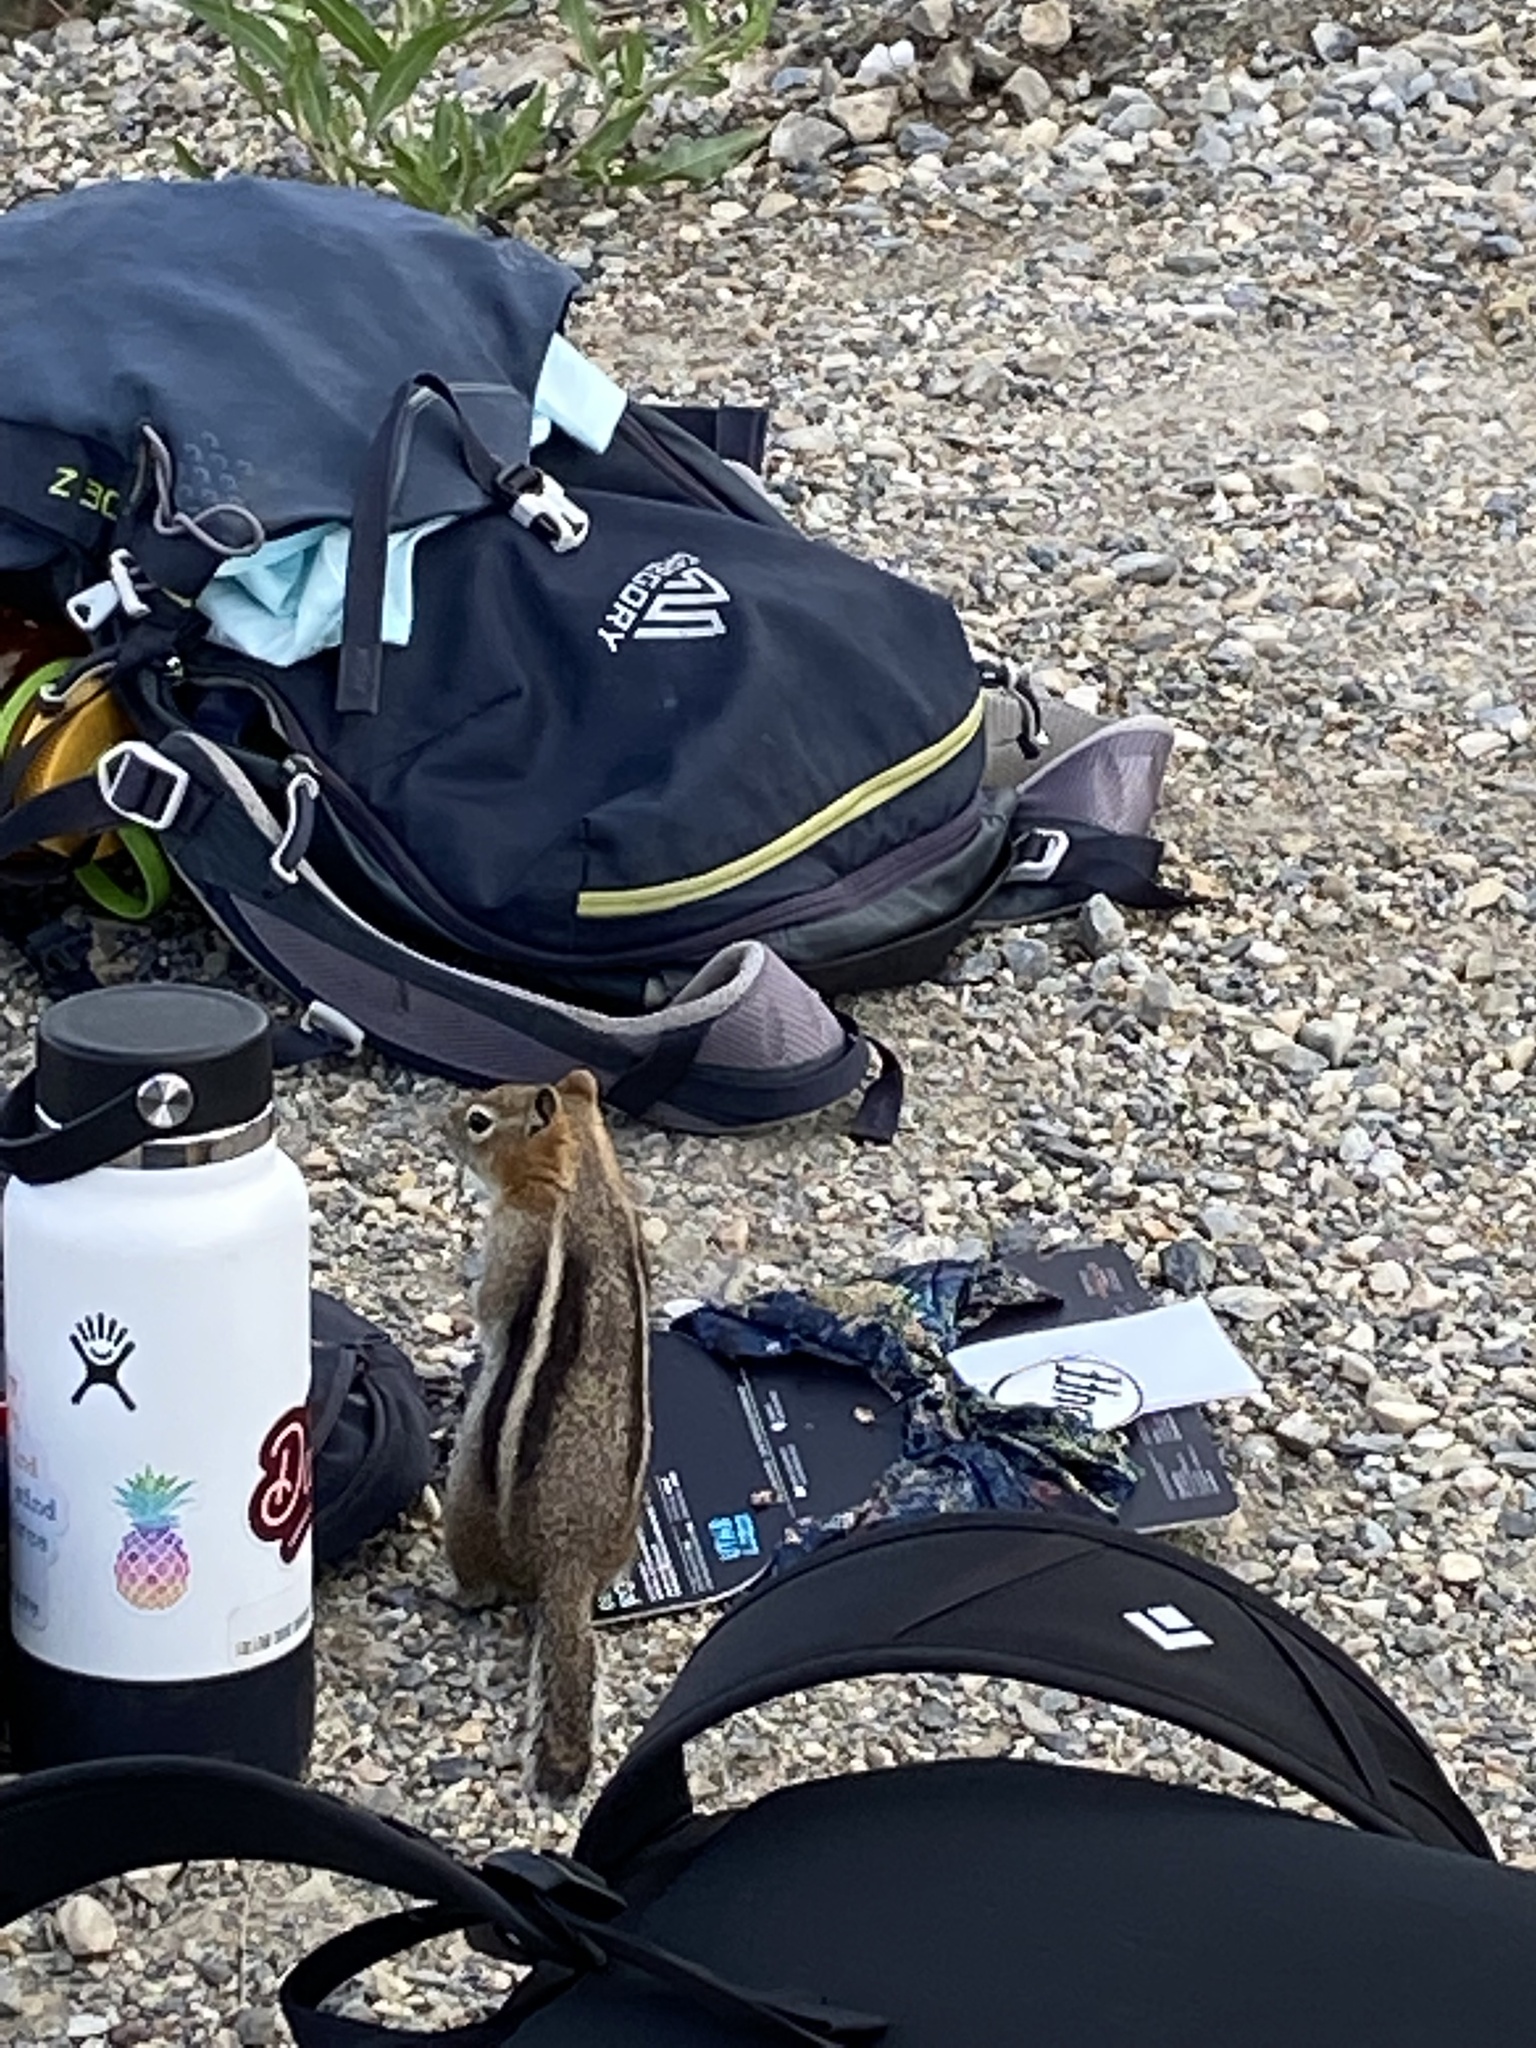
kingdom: Animalia
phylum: Chordata
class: Mammalia
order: Rodentia
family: Sciuridae
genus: Callospermophilus
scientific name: Callospermophilus lateralis
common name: Golden-mantled ground squirrel
